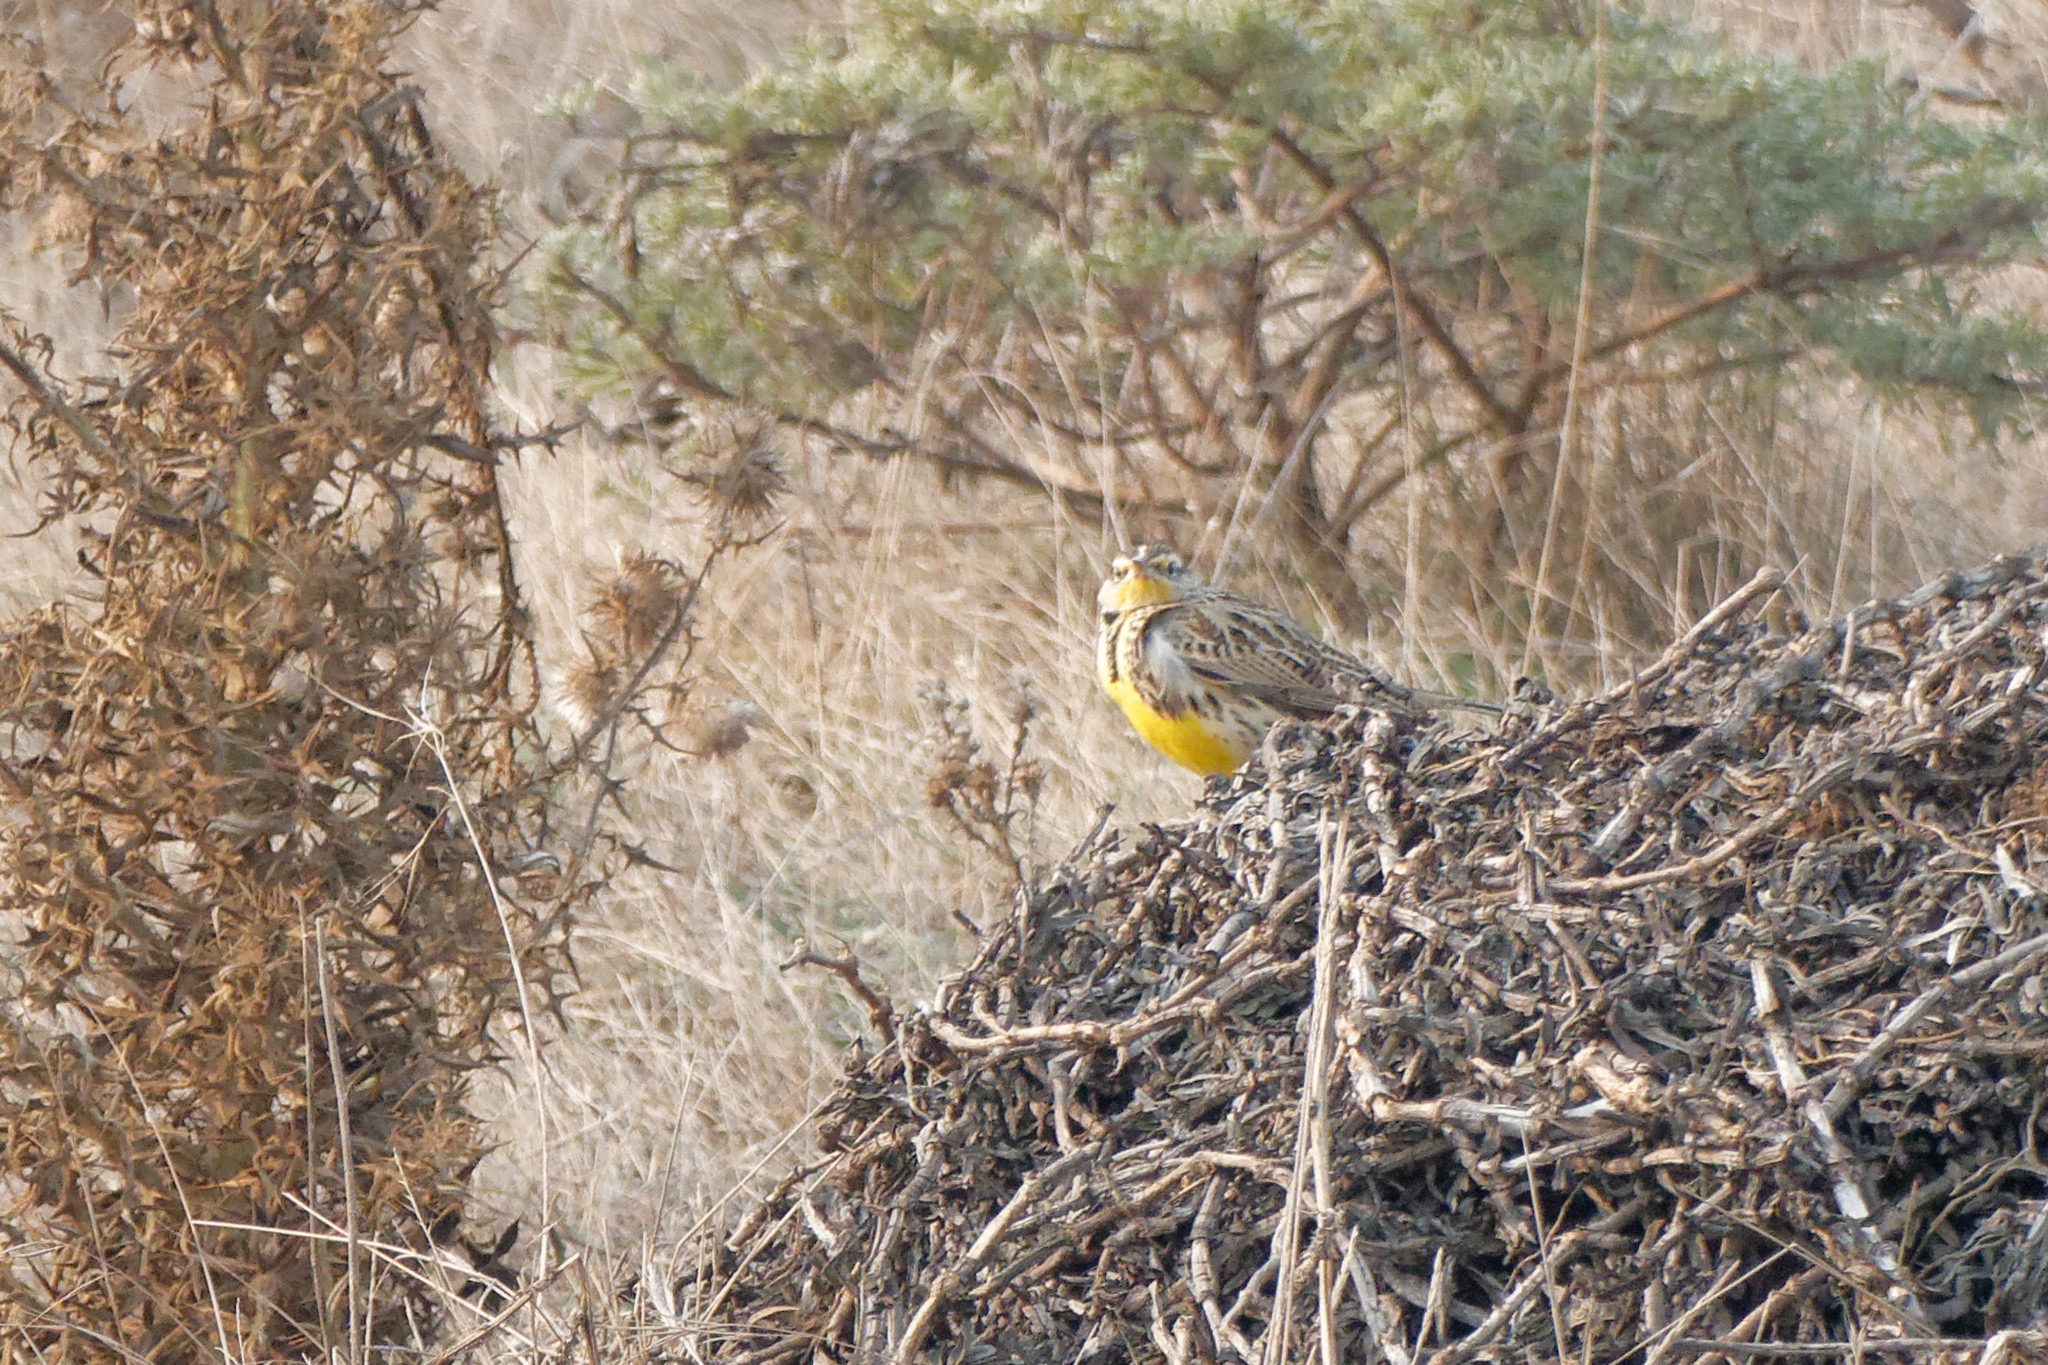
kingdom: Animalia
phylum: Chordata
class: Aves
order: Passeriformes
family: Icteridae
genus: Sturnella
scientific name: Sturnella neglecta
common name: Western meadowlark
